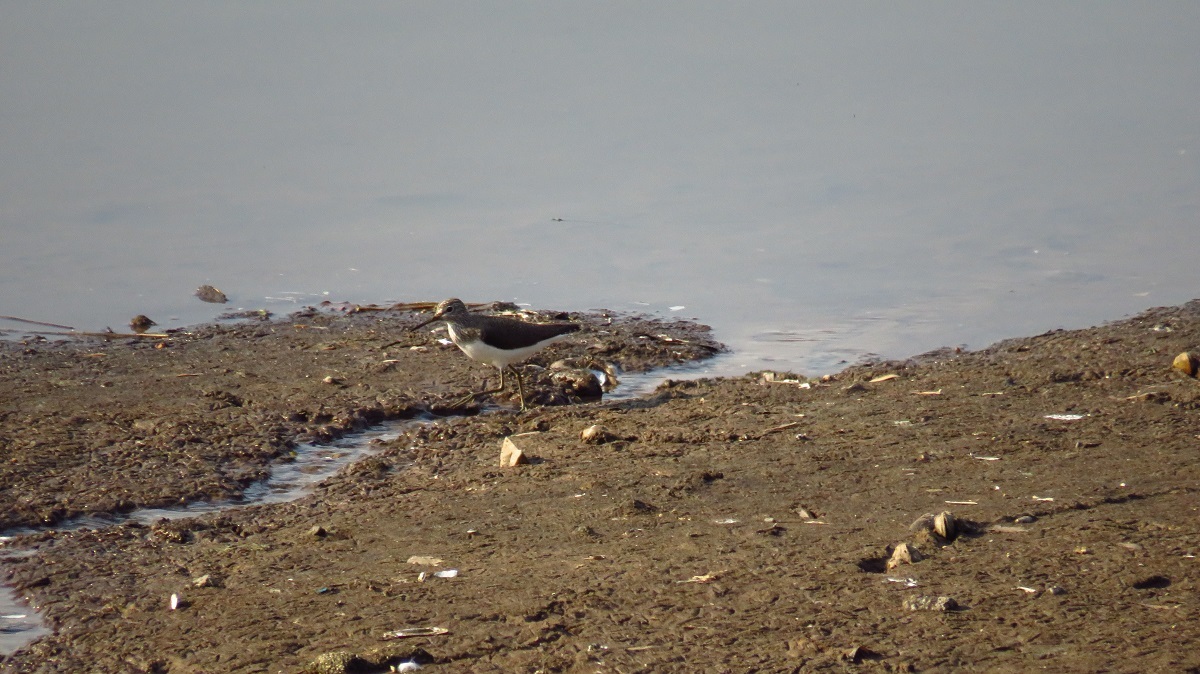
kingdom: Animalia
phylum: Chordata
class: Aves
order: Charadriiformes
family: Scolopacidae
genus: Tringa
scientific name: Tringa ochropus
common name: Green sandpiper
